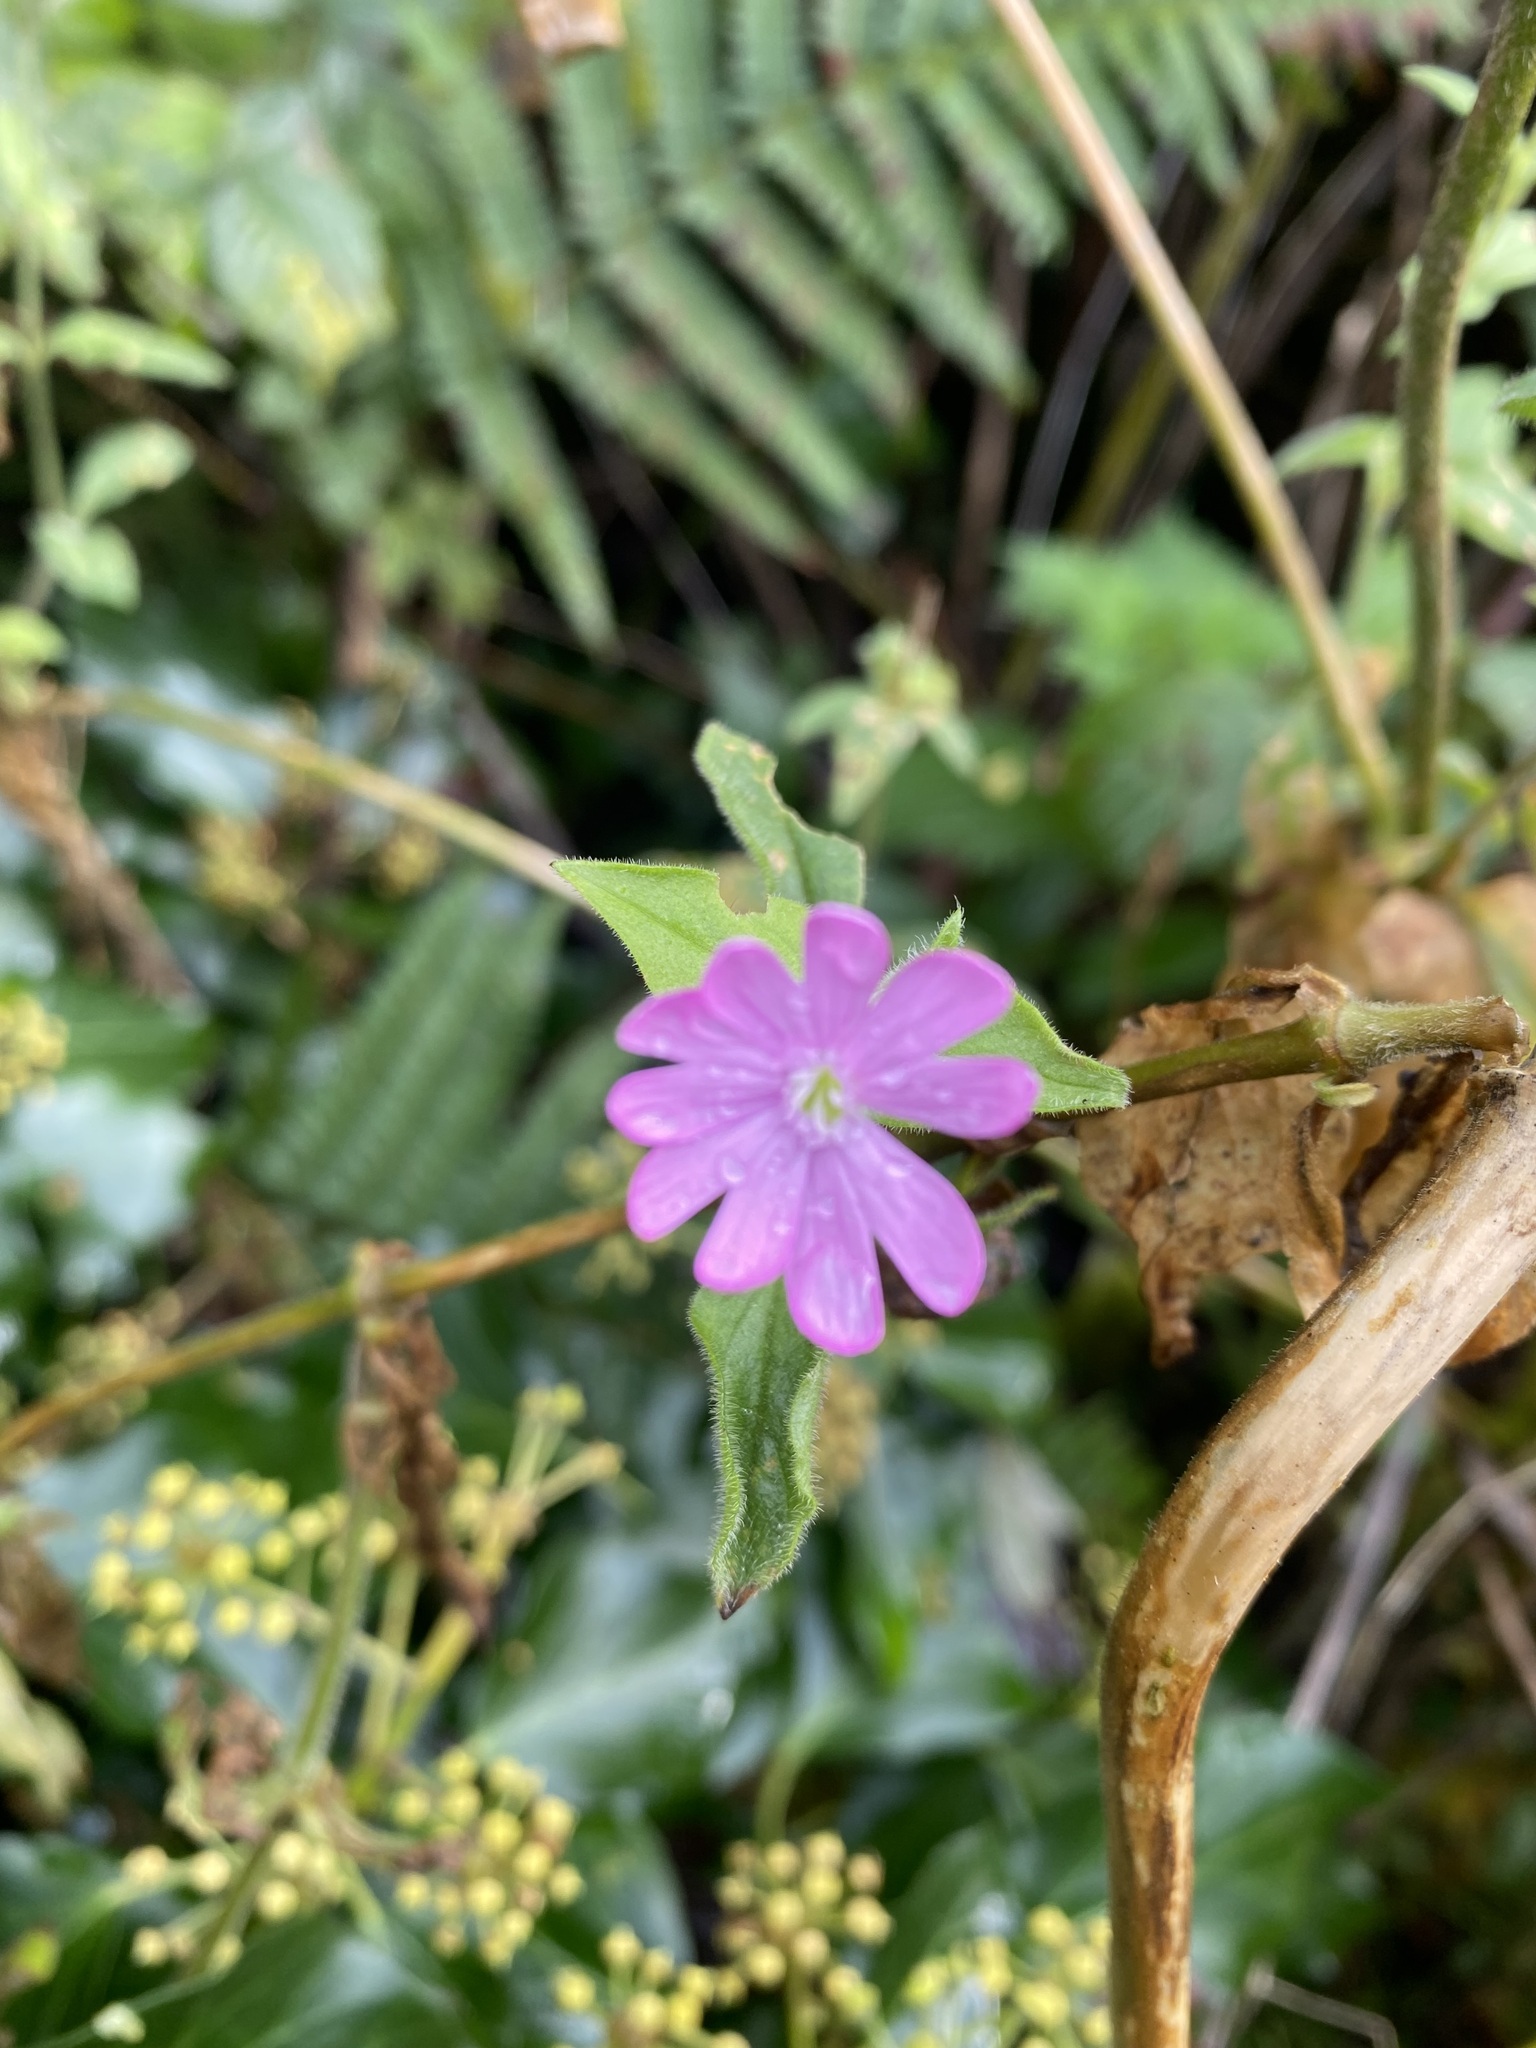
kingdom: Plantae
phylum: Tracheophyta
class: Magnoliopsida
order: Caryophyllales
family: Caryophyllaceae
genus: Silene
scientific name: Silene dioica
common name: Red campion
